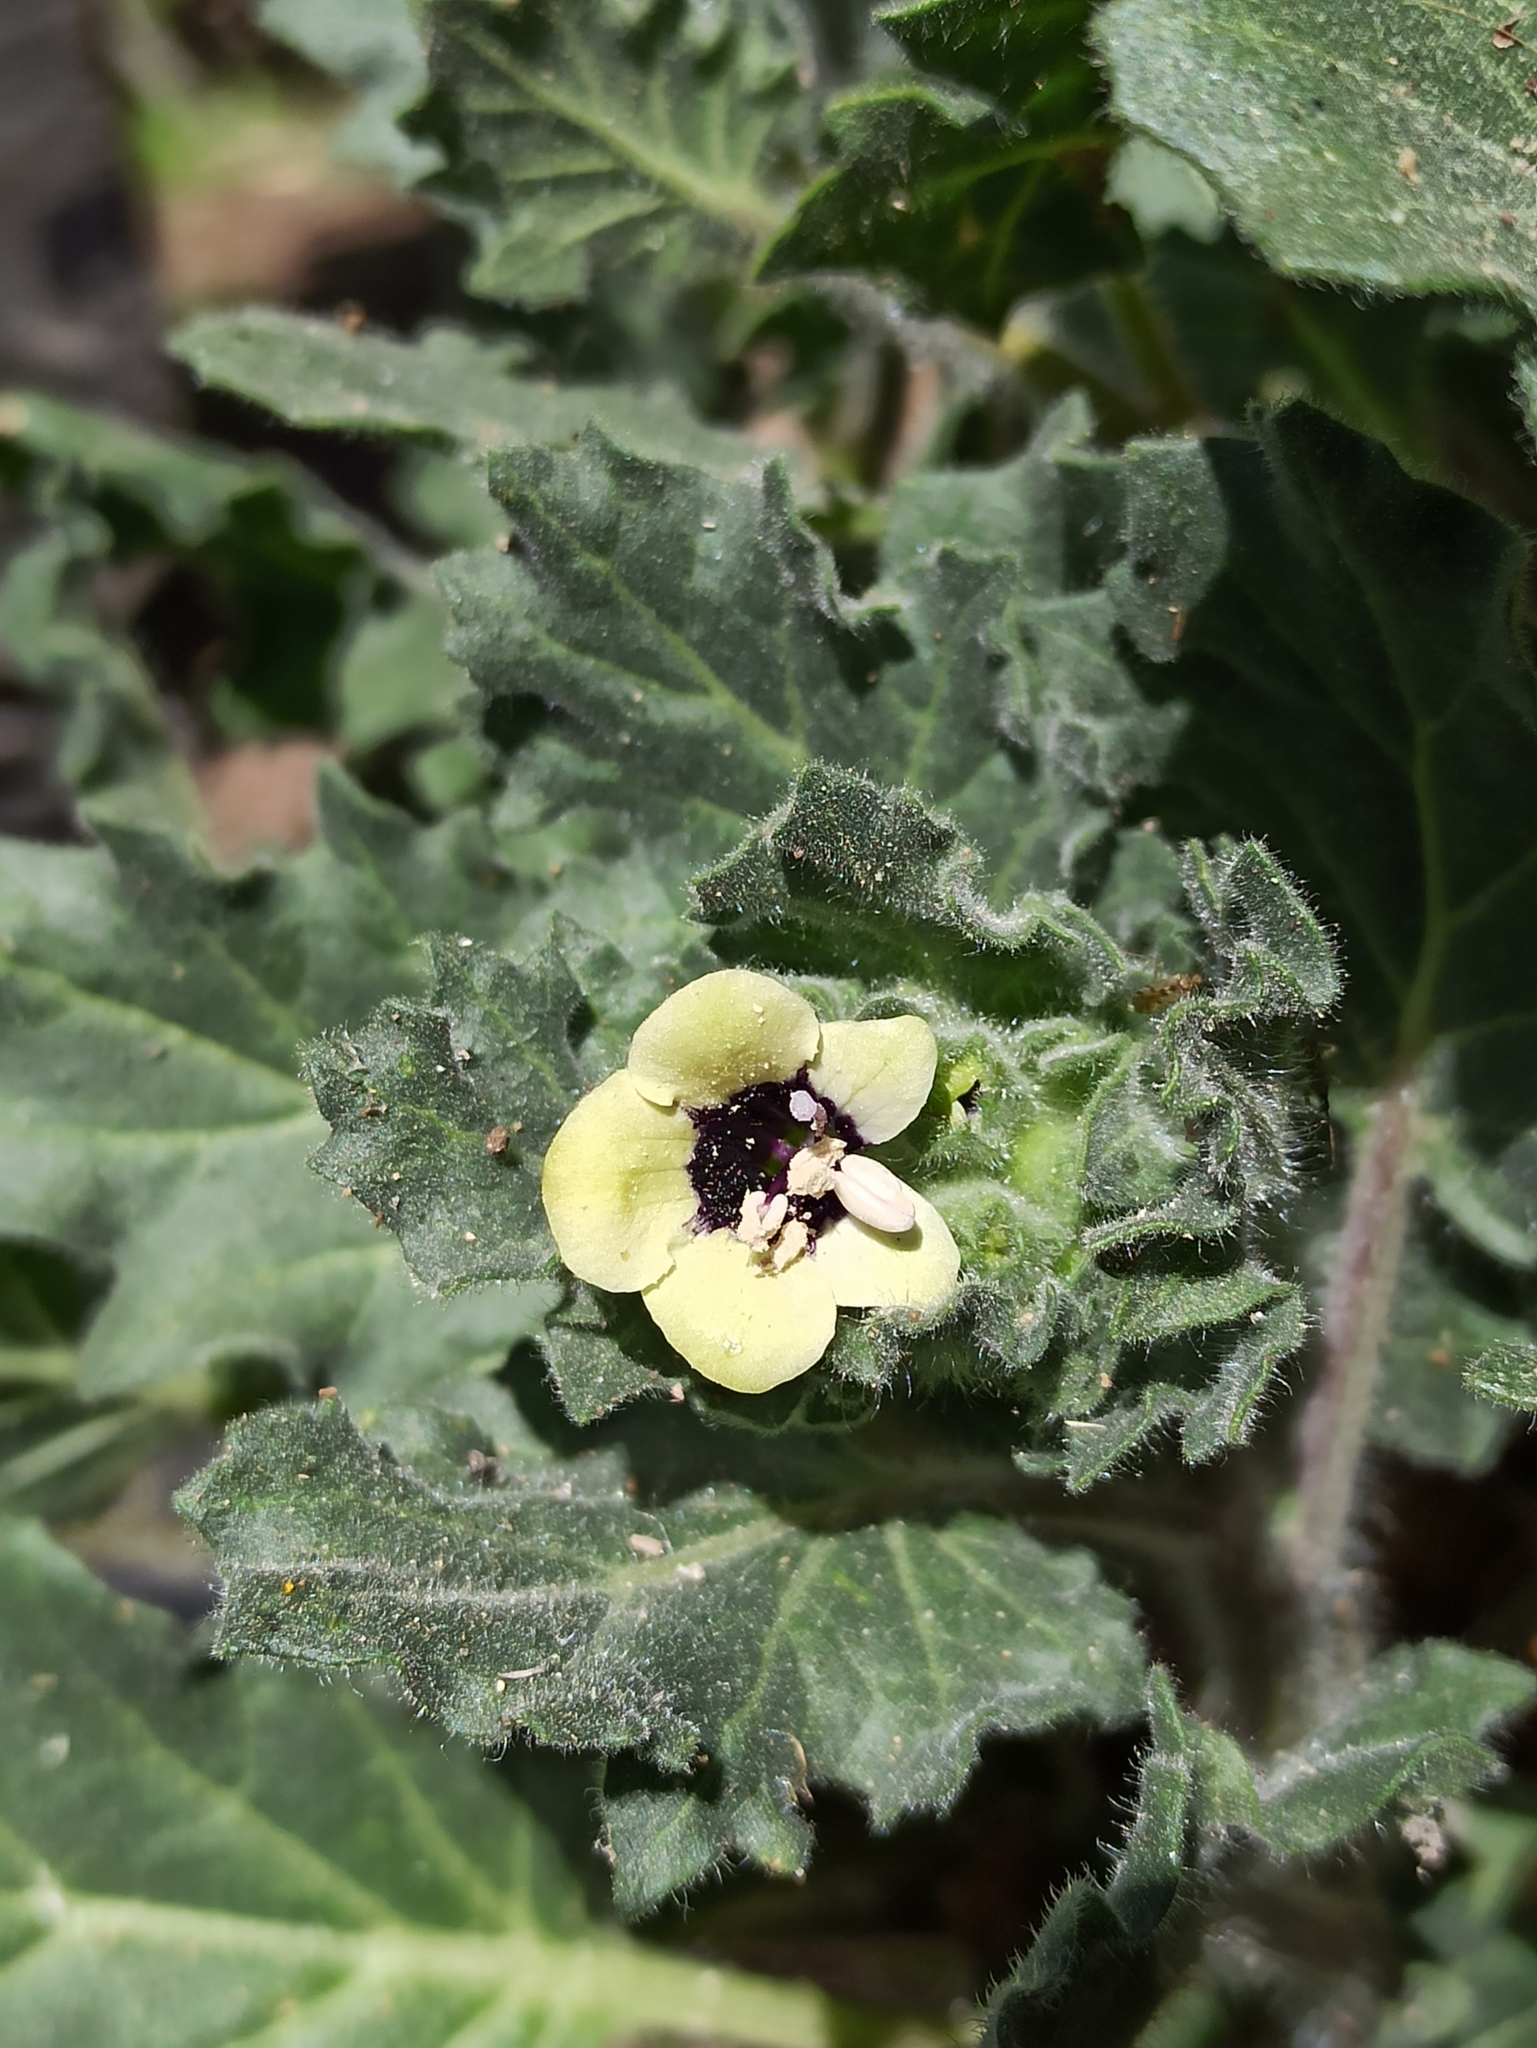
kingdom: Plantae
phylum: Tracheophyta
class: Magnoliopsida
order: Solanales
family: Solanaceae
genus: Hyoscyamus
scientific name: Hyoscyamus albus
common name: White henbane
